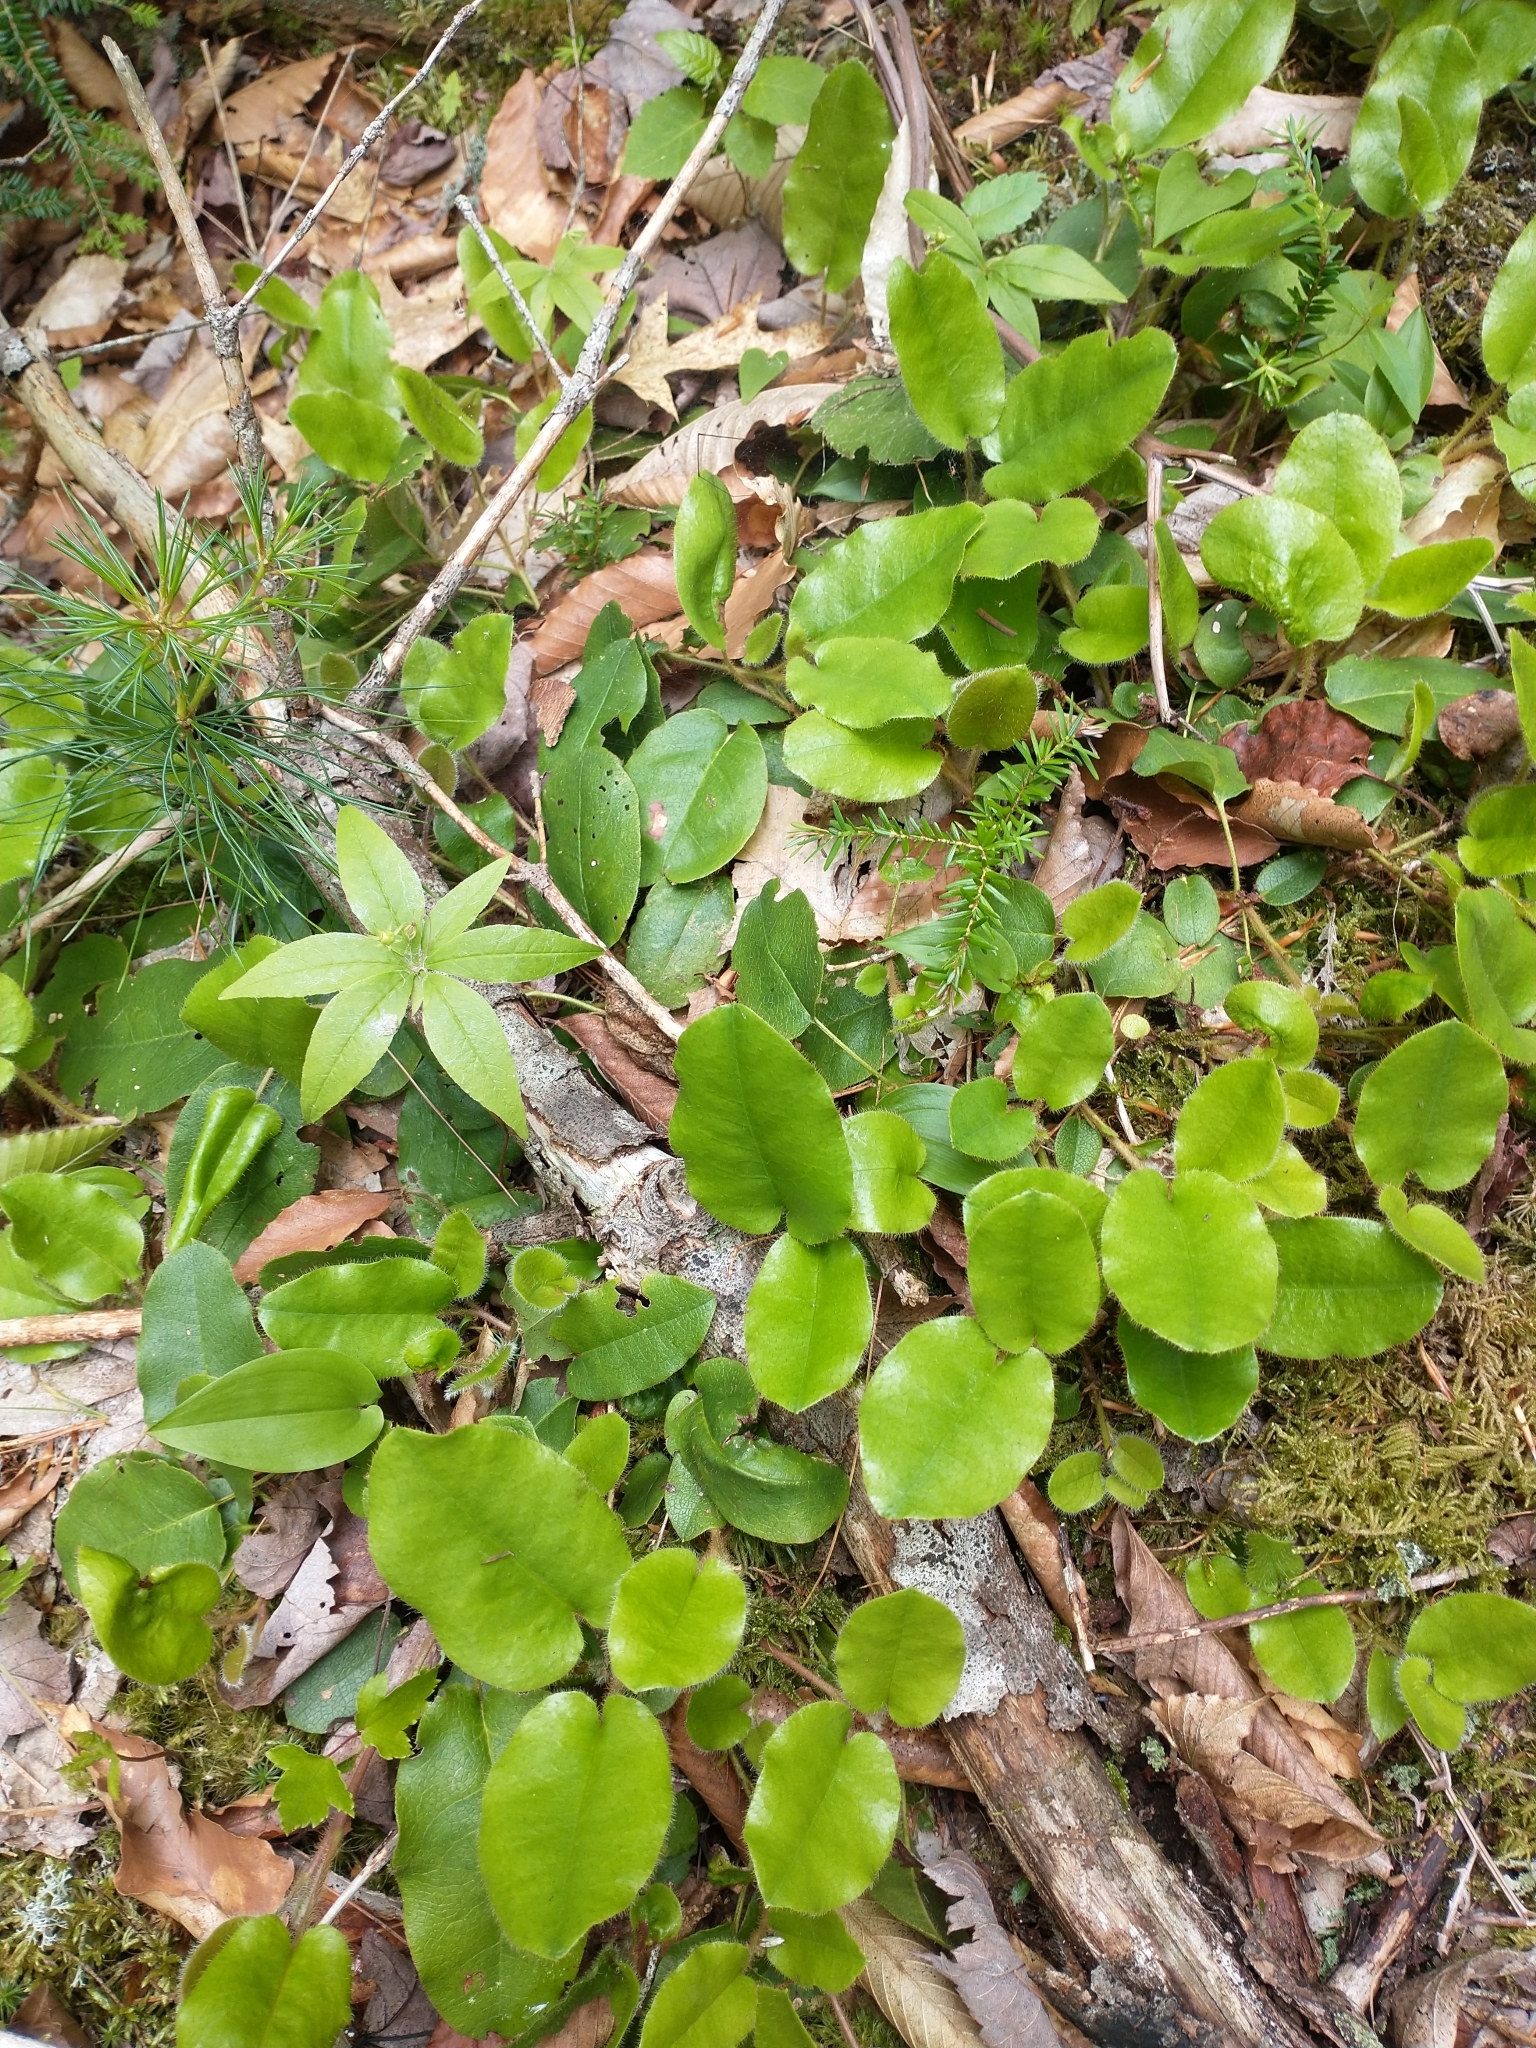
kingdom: Plantae
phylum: Tracheophyta
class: Magnoliopsida
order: Ericales
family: Ericaceae
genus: Epigaea
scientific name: Epigaea repens
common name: Gravelroot
